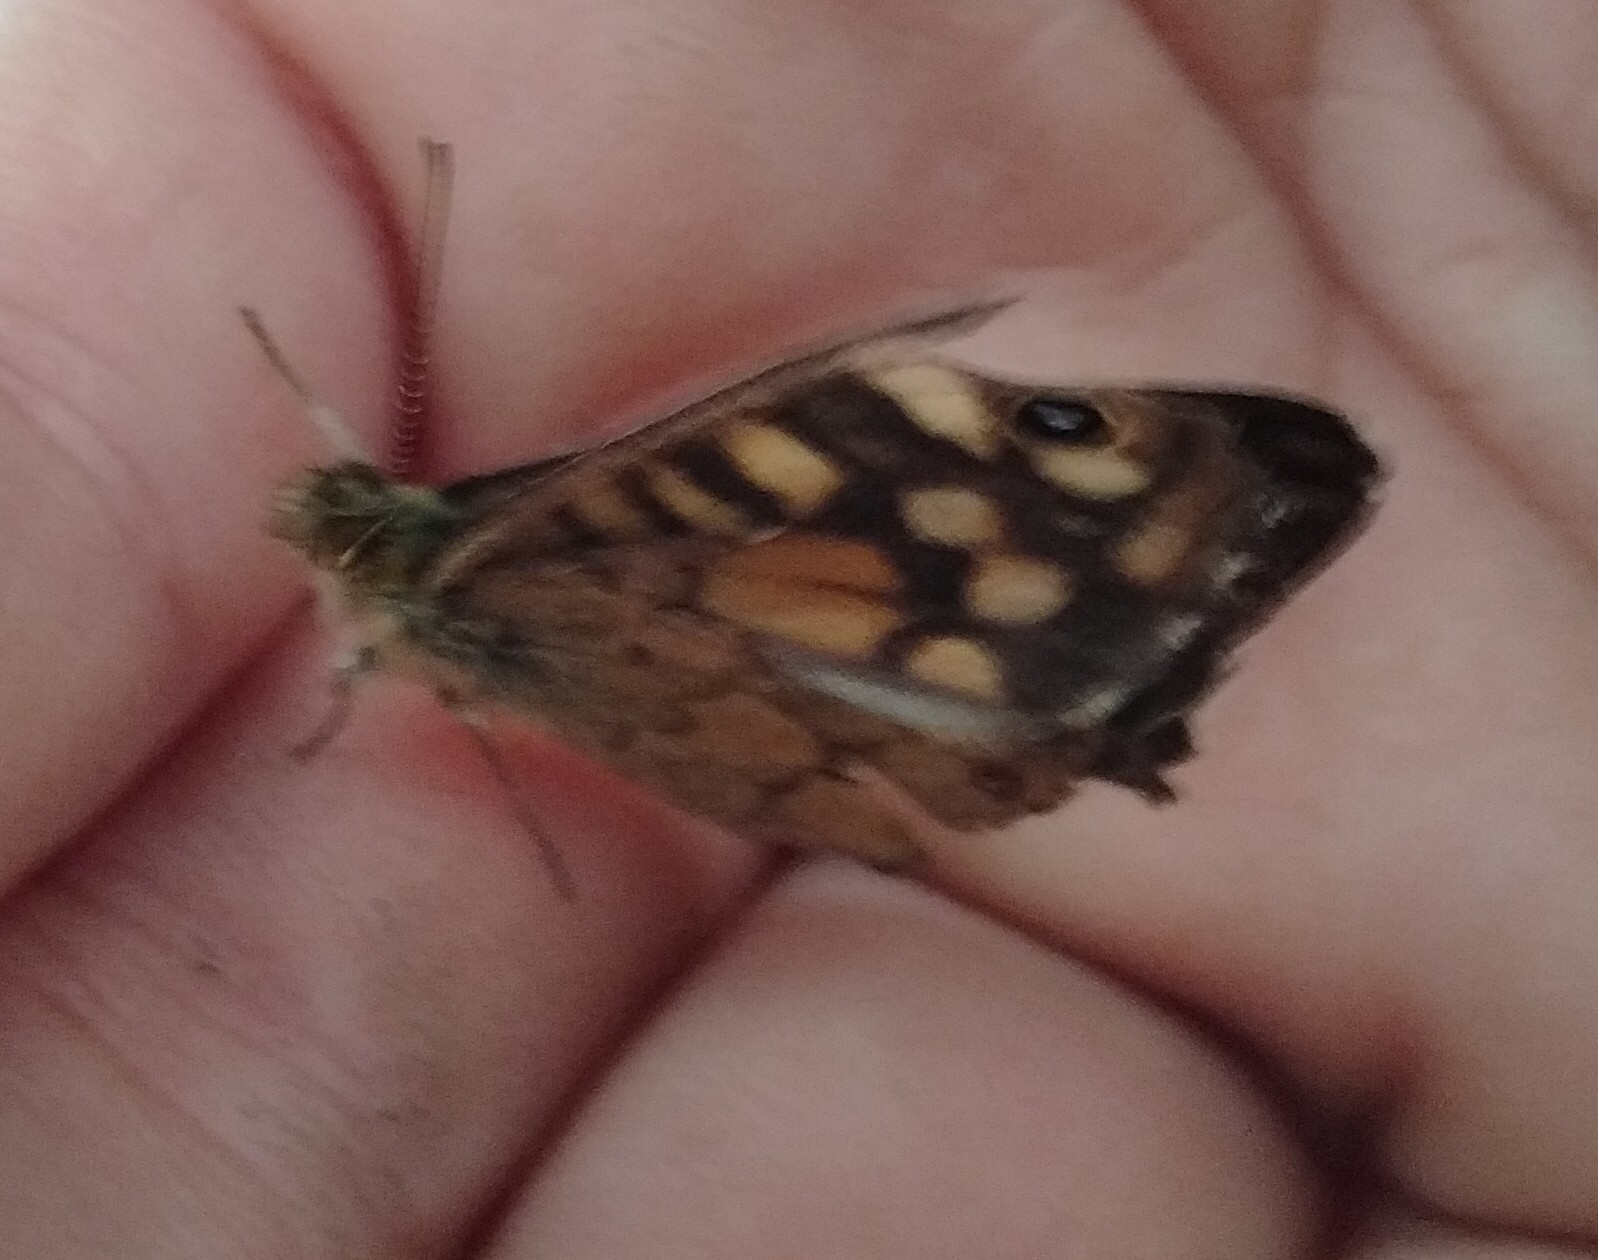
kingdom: Animalia
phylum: Arthropoda
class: Insecta
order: Lepidoptera
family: Nymphalidae
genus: Pararge
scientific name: Pararge aegeria
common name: Speckled wood
